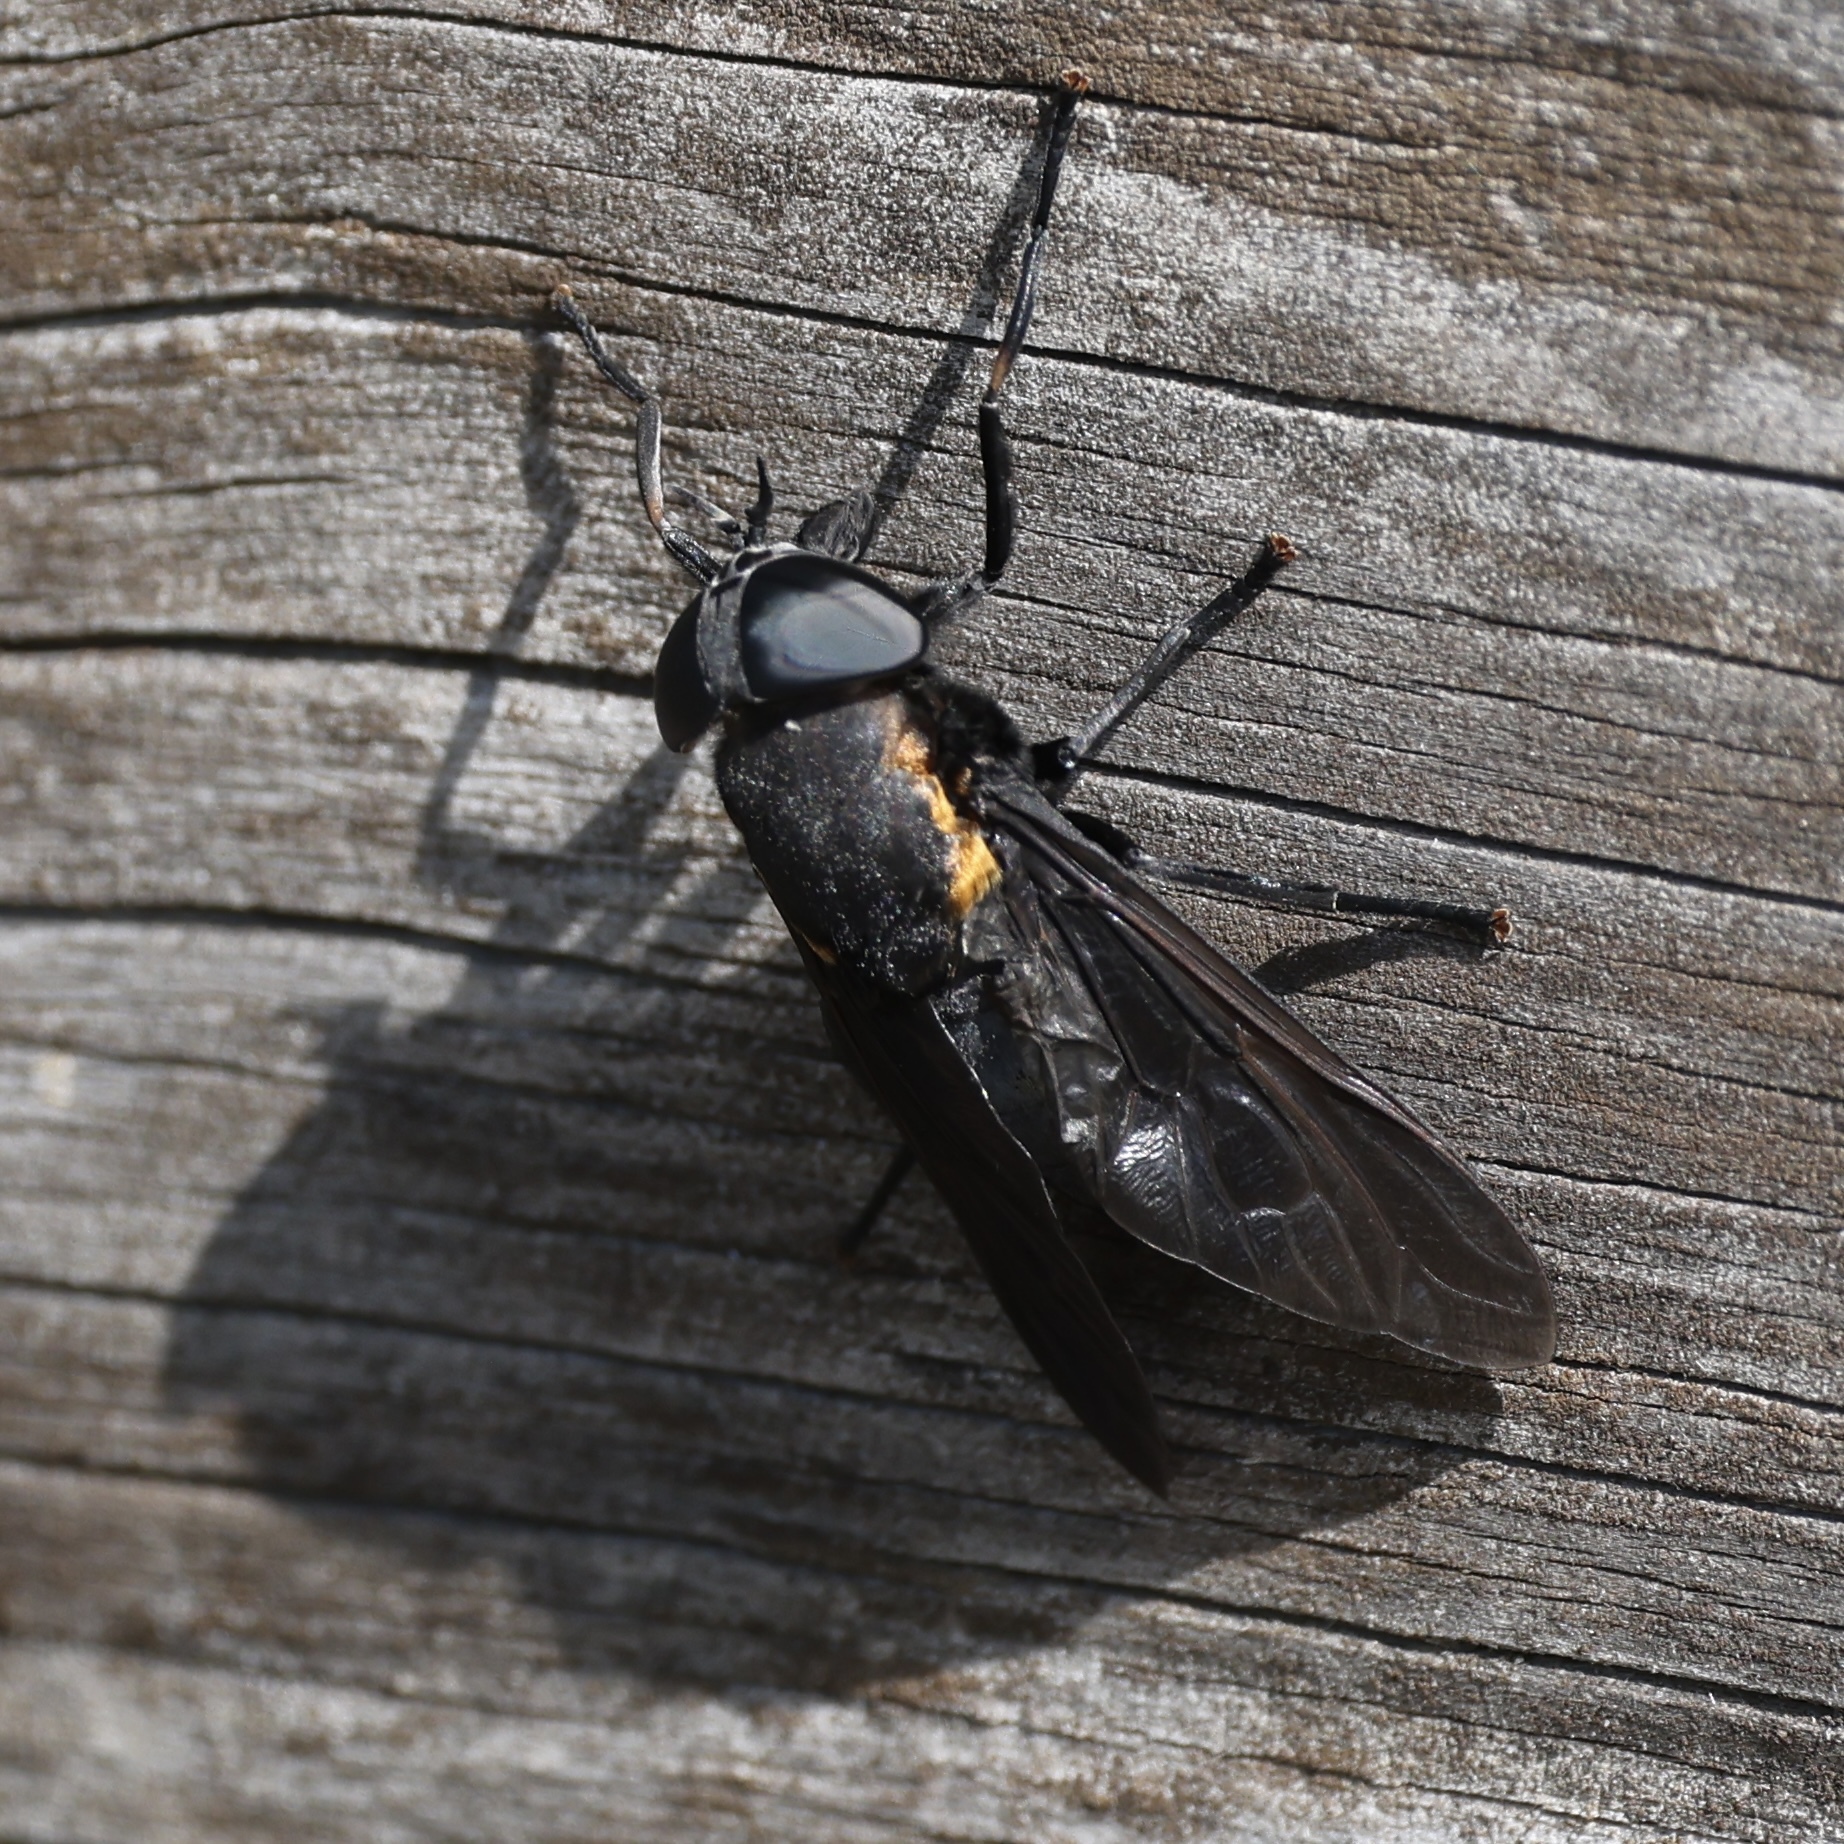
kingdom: Animalia
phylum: Arthropoda
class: Insecta
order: Diptera
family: Tabanidae
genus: Tabanus
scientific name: Tabanus atratus
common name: Black horse fly
